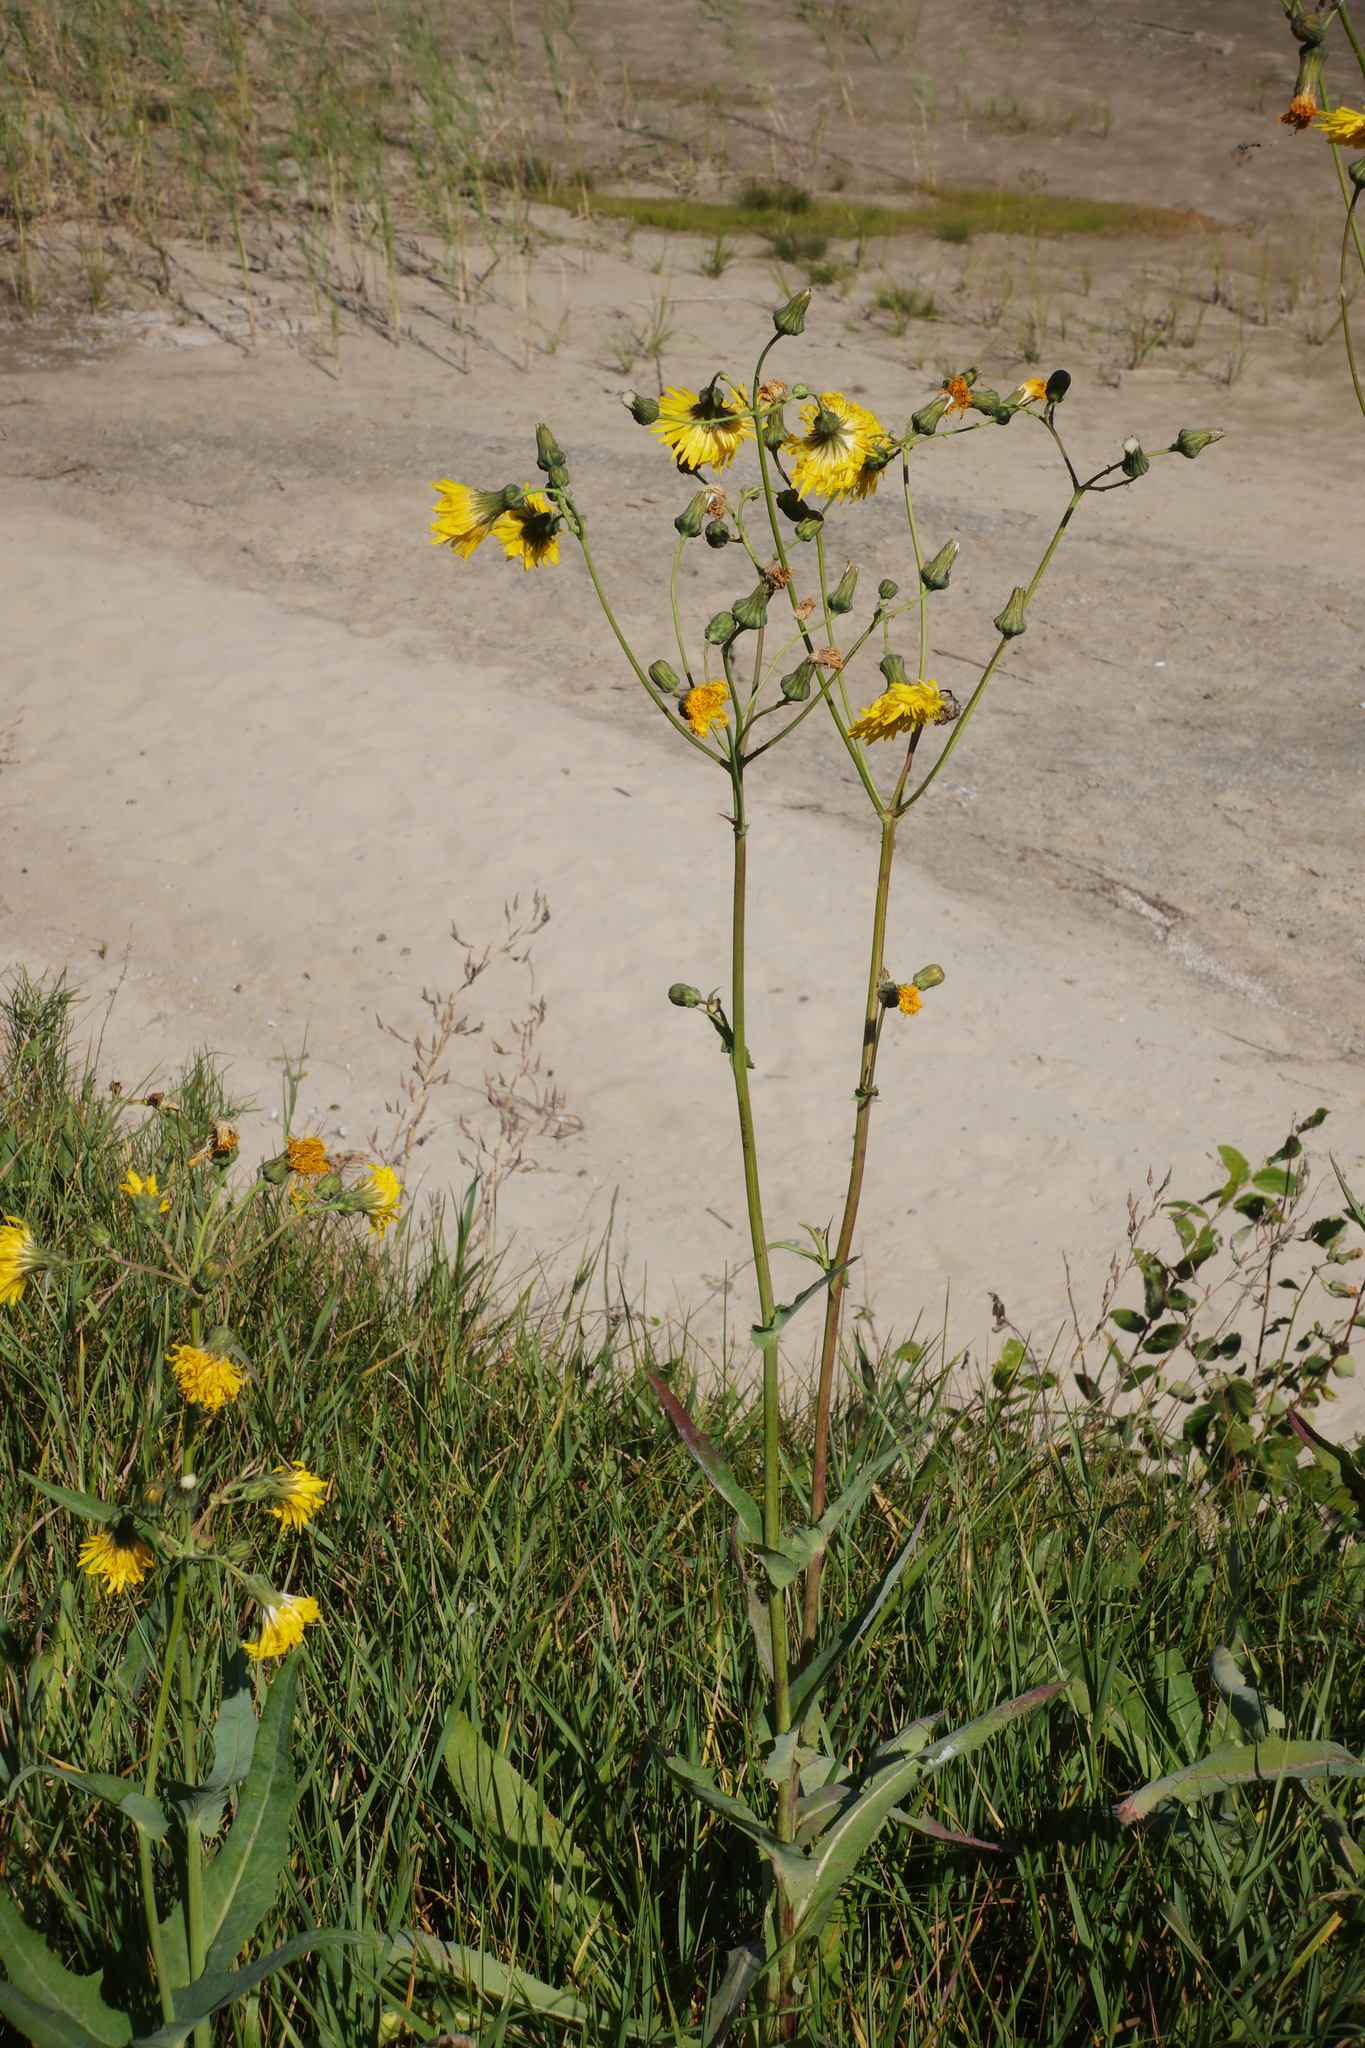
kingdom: Plantae
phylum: Tracheophyta
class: Magnoliopsida
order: Asterales
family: Asteraceae
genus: Sonchus
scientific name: Sonchus arvensis
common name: Perennial sow-thistle
